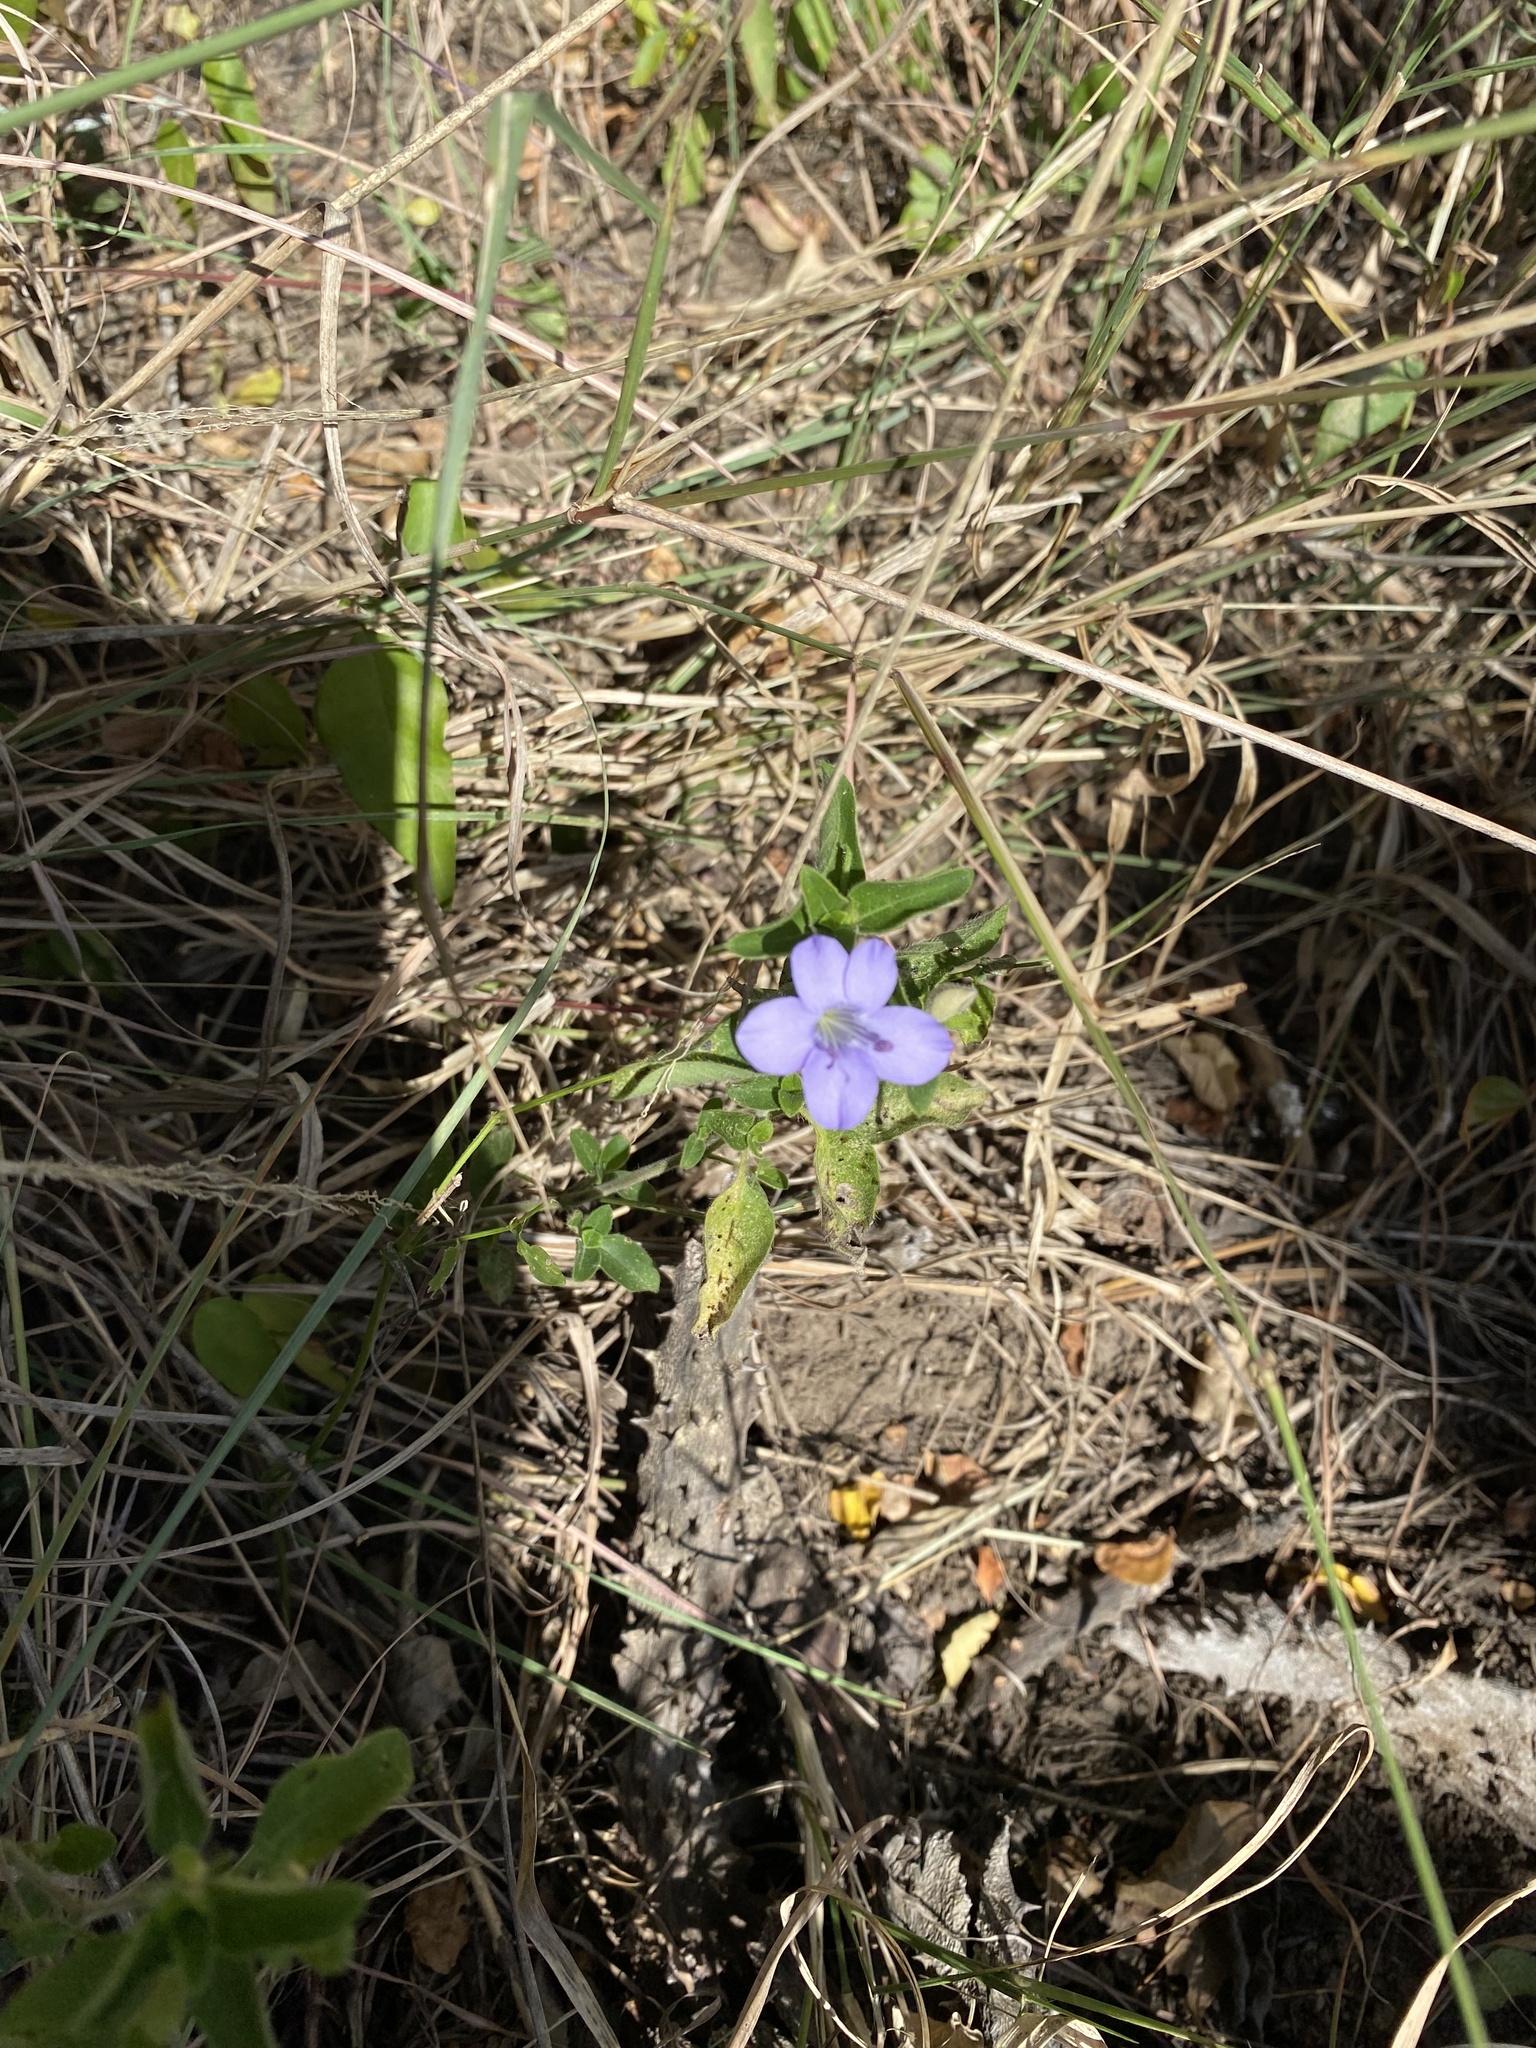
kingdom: Plantae
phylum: Tracheophyta
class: Magnoliopsida
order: Lamiales
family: Acanthaceae
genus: Barleria
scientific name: Barleria obtusa
